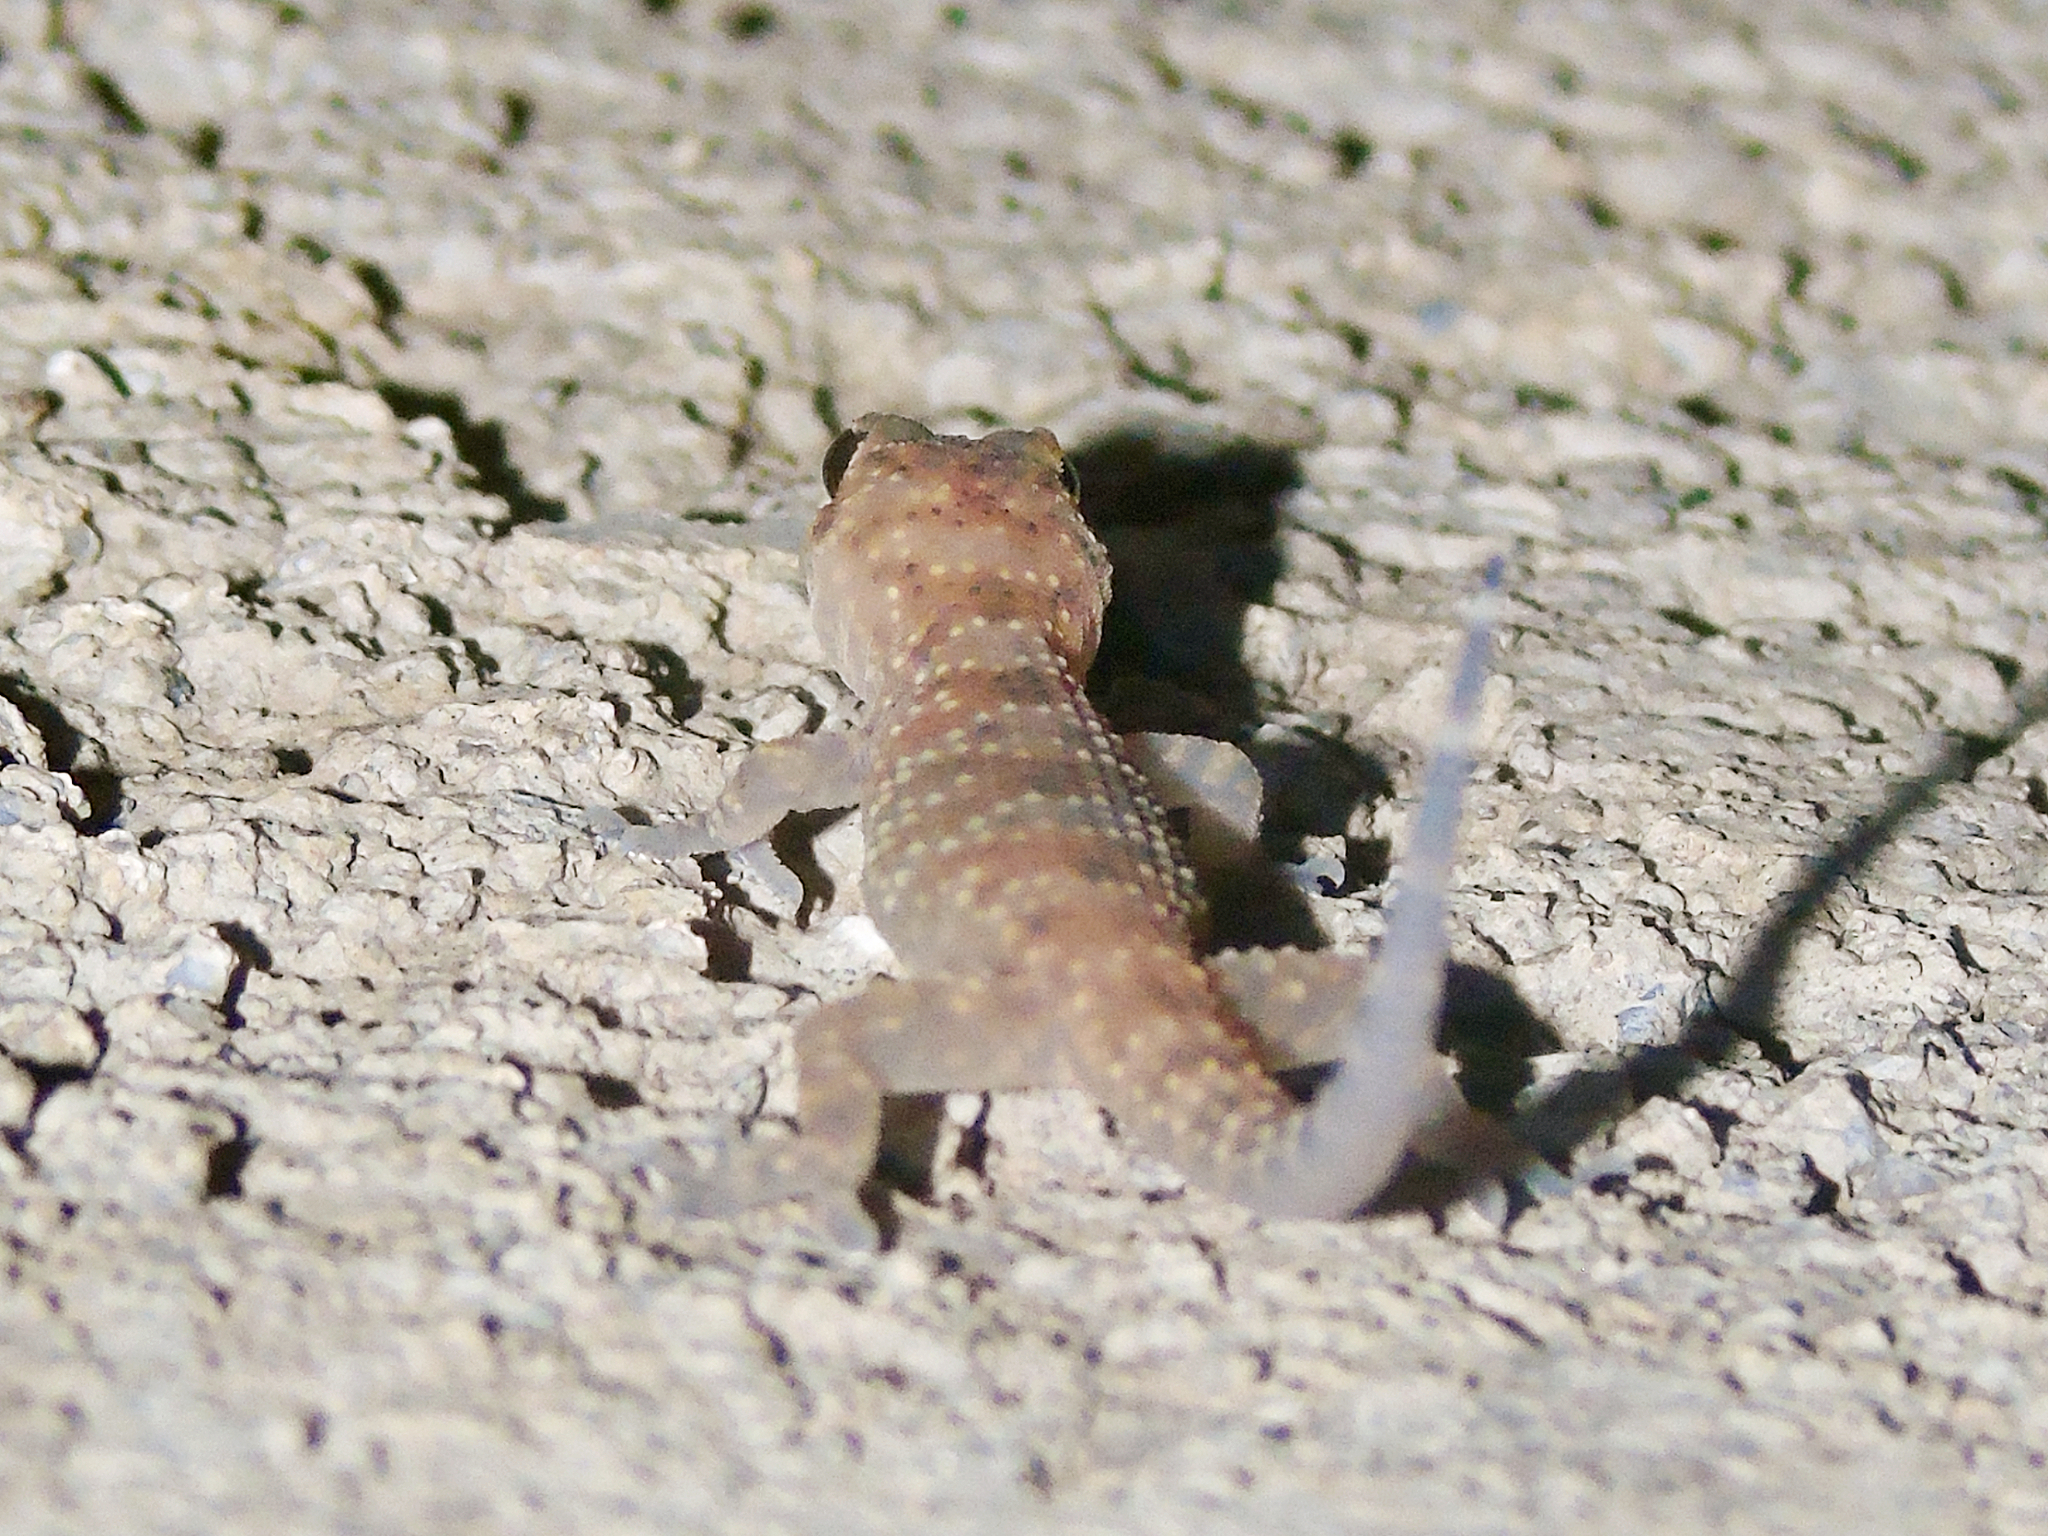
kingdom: Animalia
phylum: Chordata
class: Squamata
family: Gekkonidae
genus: Hemidactylus
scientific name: Hemidactylus turcicus
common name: Turkish gecko
